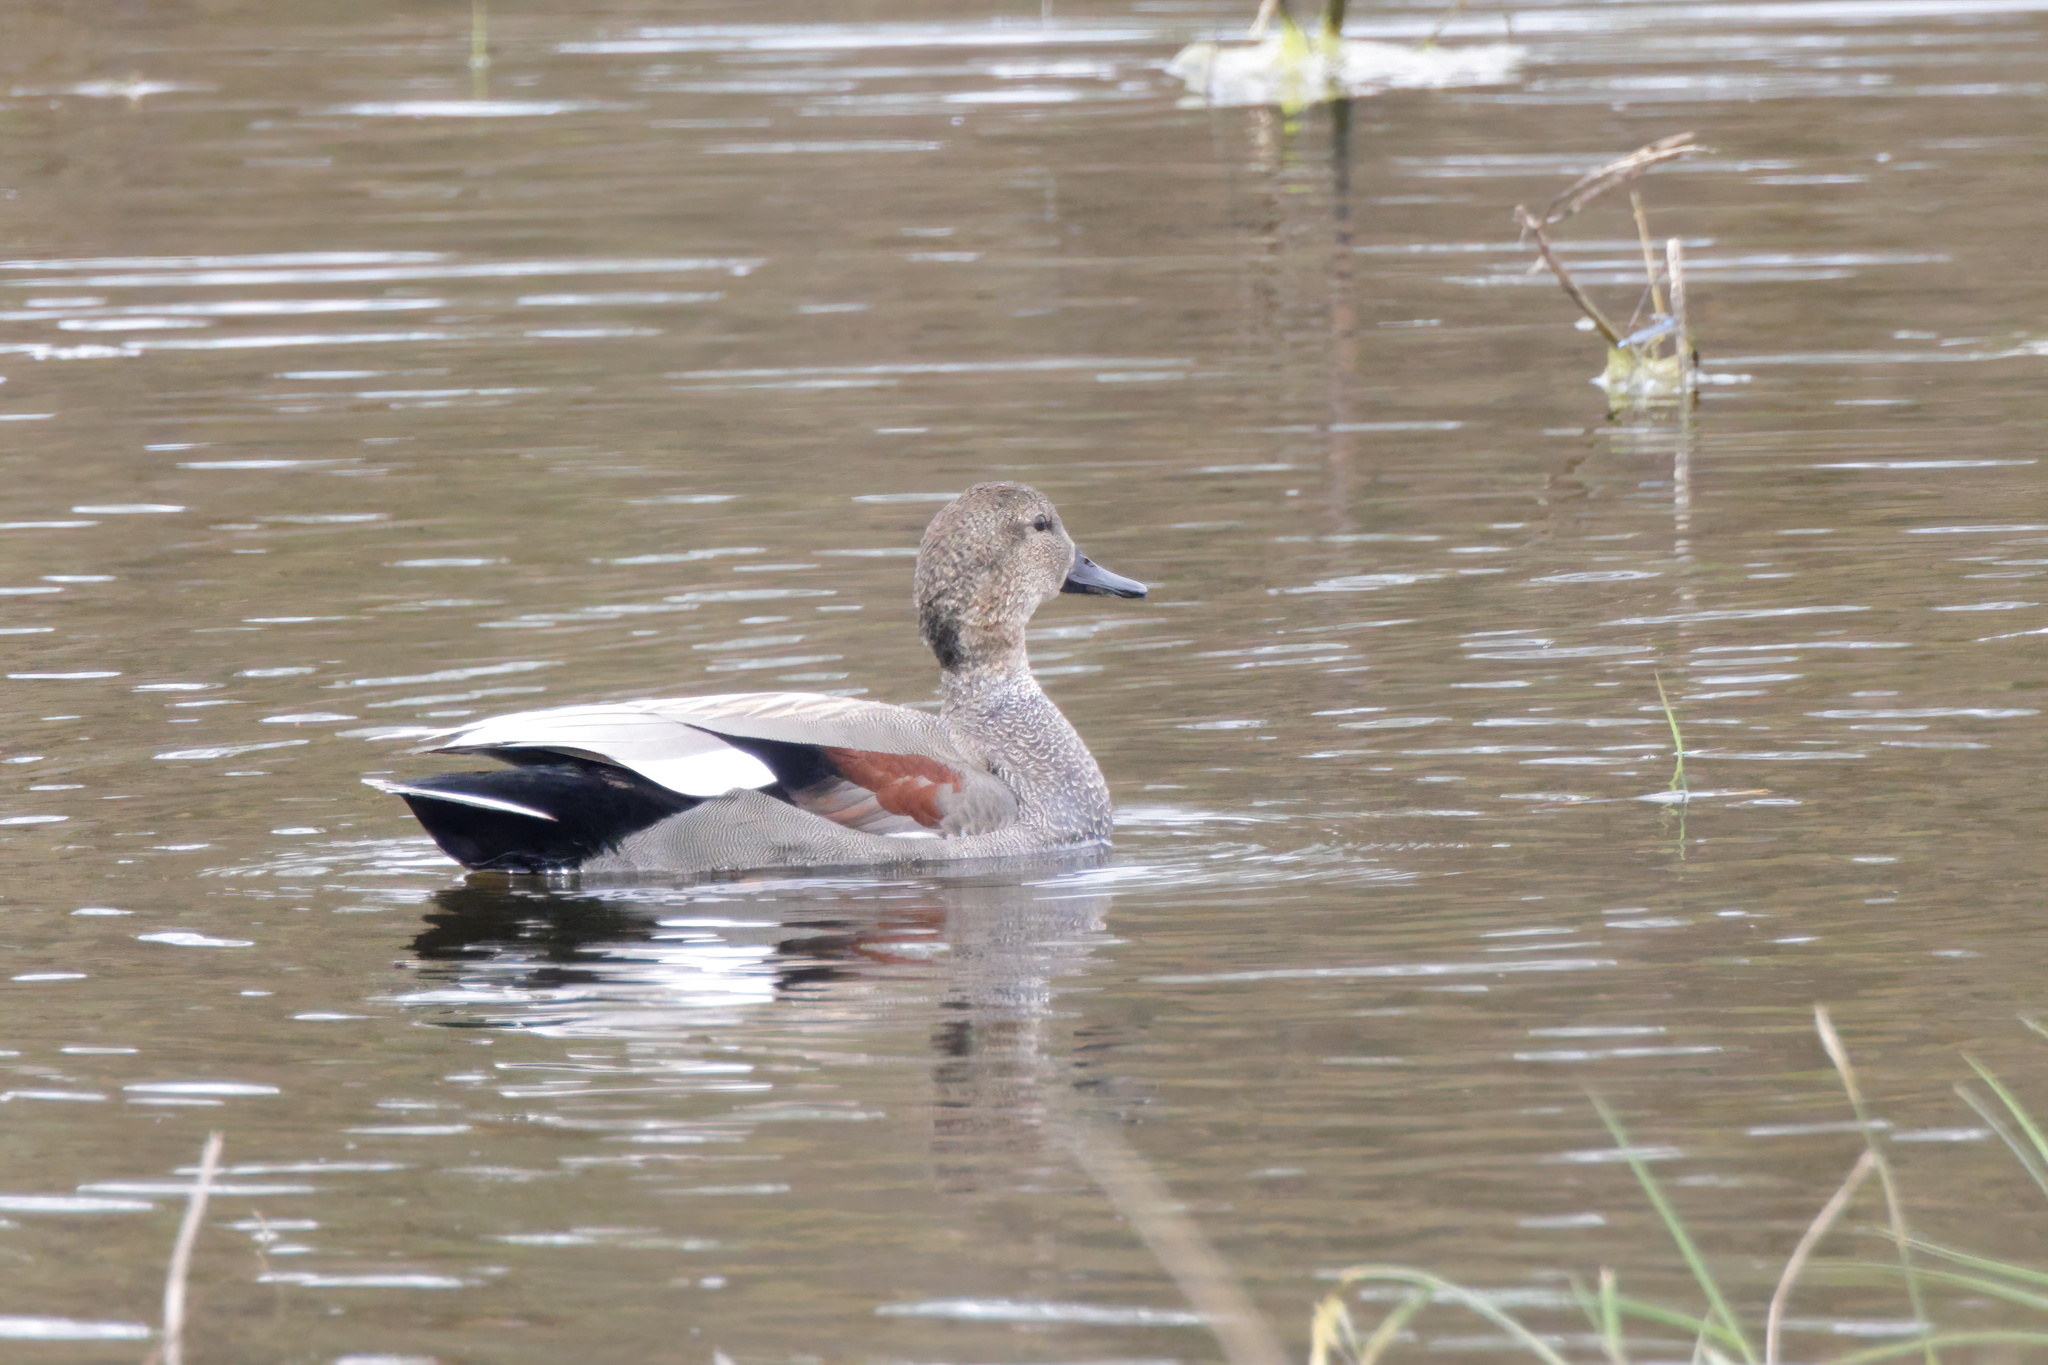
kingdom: Animalia
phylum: Chordata
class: Aves
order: Anseriformes
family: Anatidae
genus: Mareca
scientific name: Mareca strepera
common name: Gadwall
